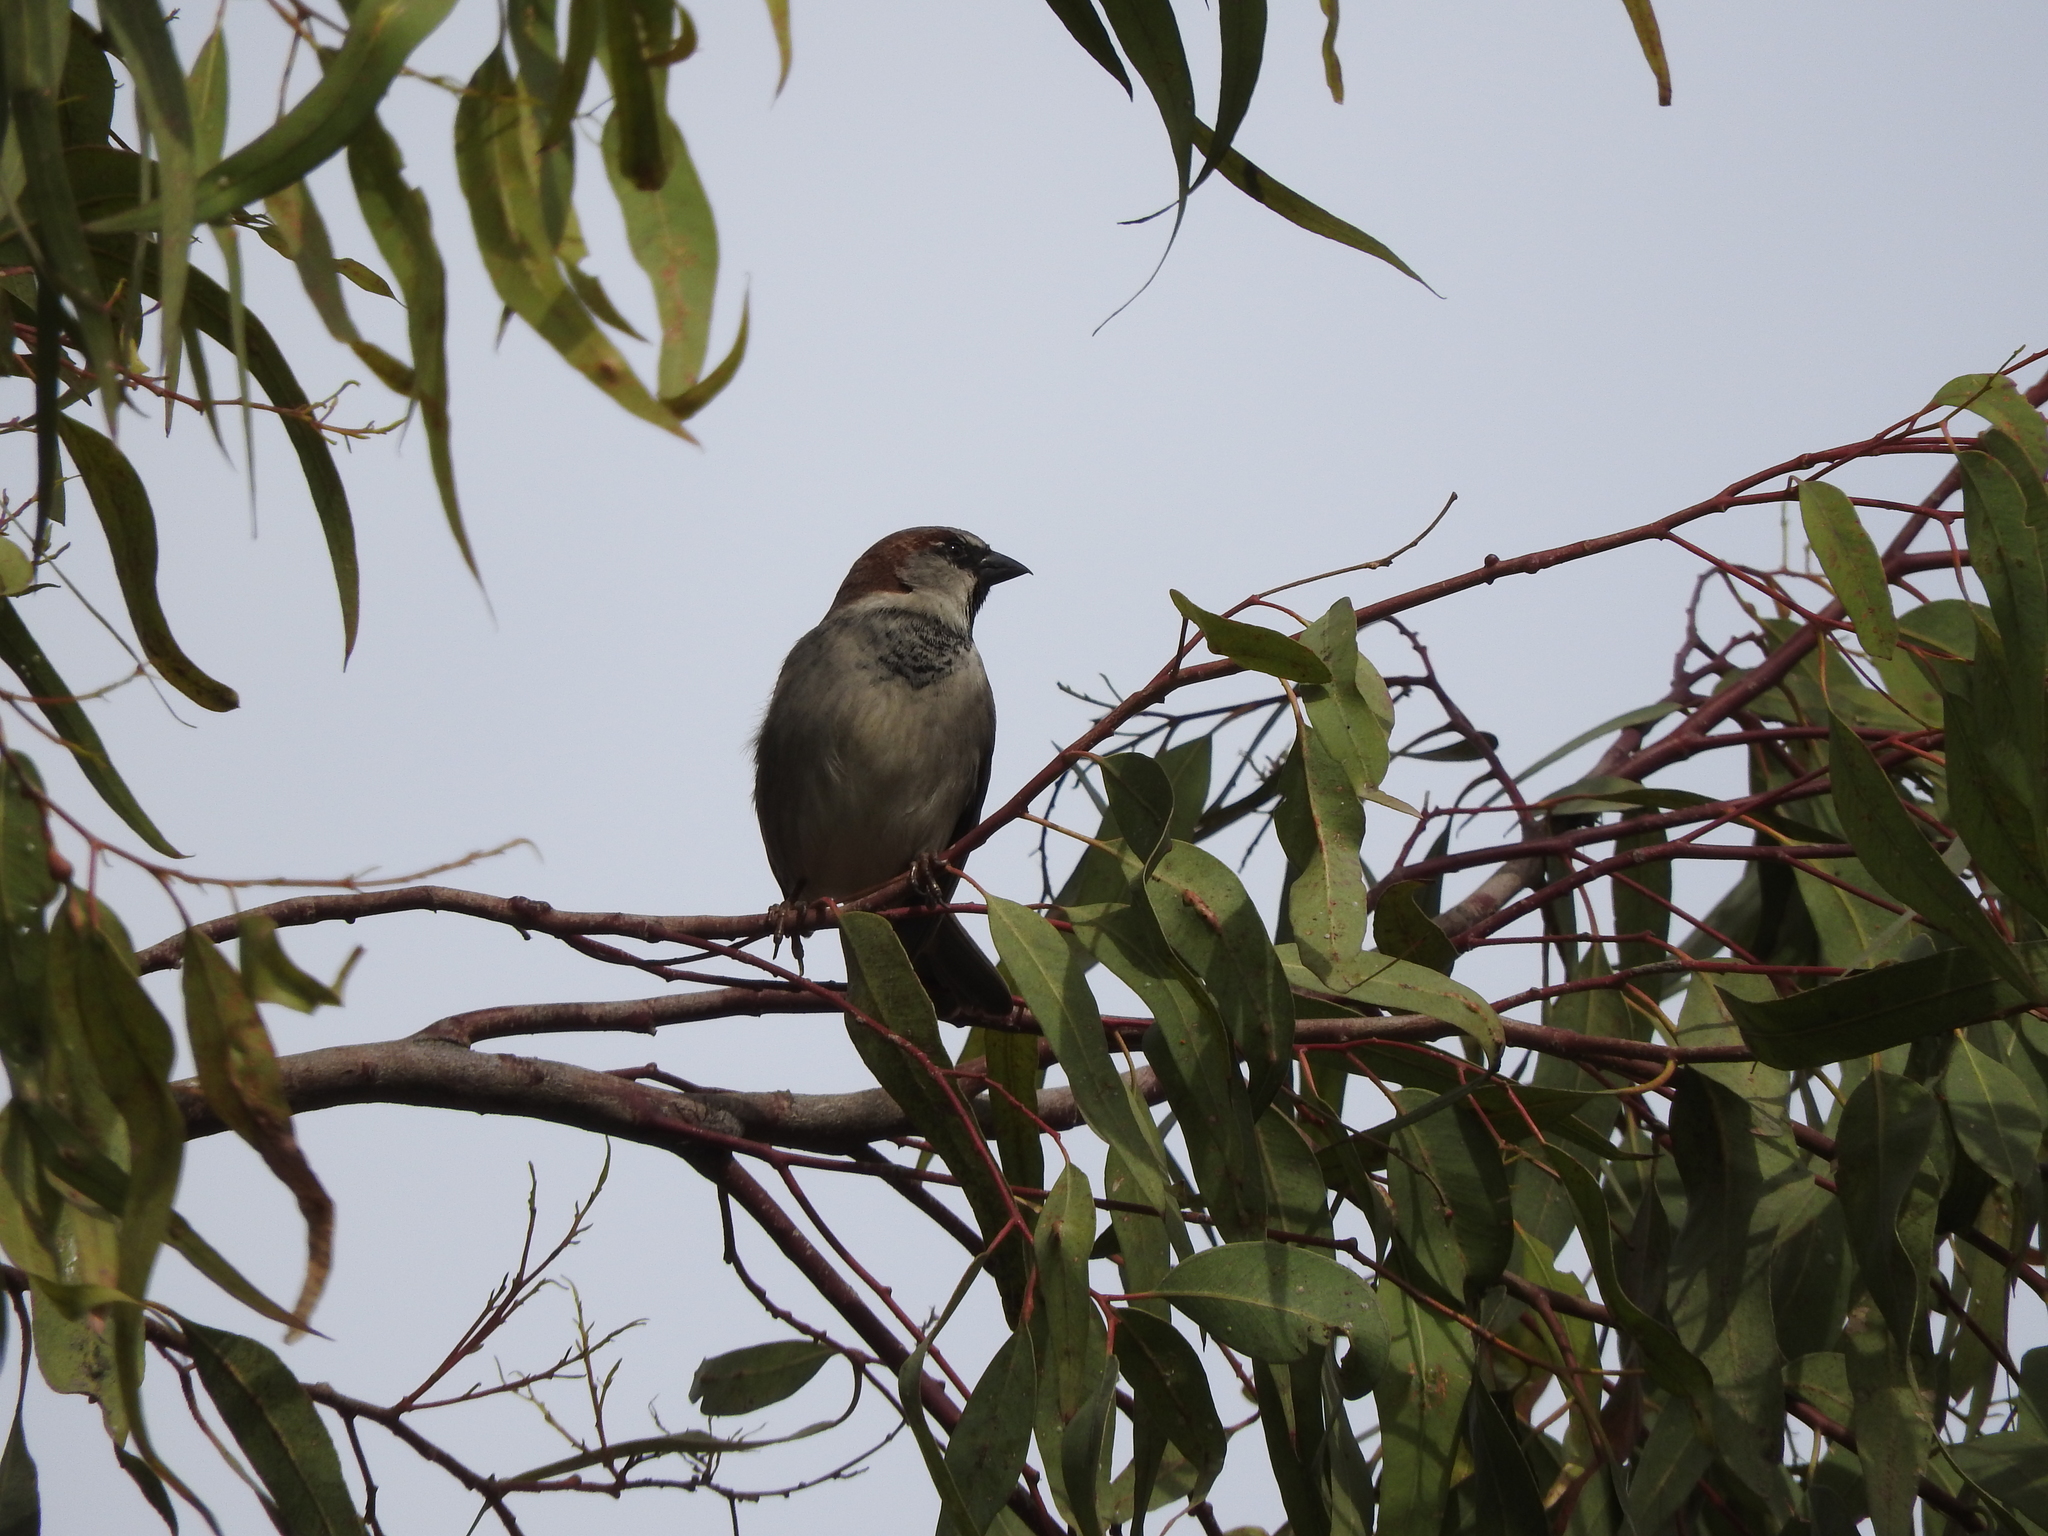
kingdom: Animalia
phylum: Chordata
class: Aves
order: Passeriformes
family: Passeridae
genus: Passer
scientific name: Passer domesticus
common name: House sparrow
